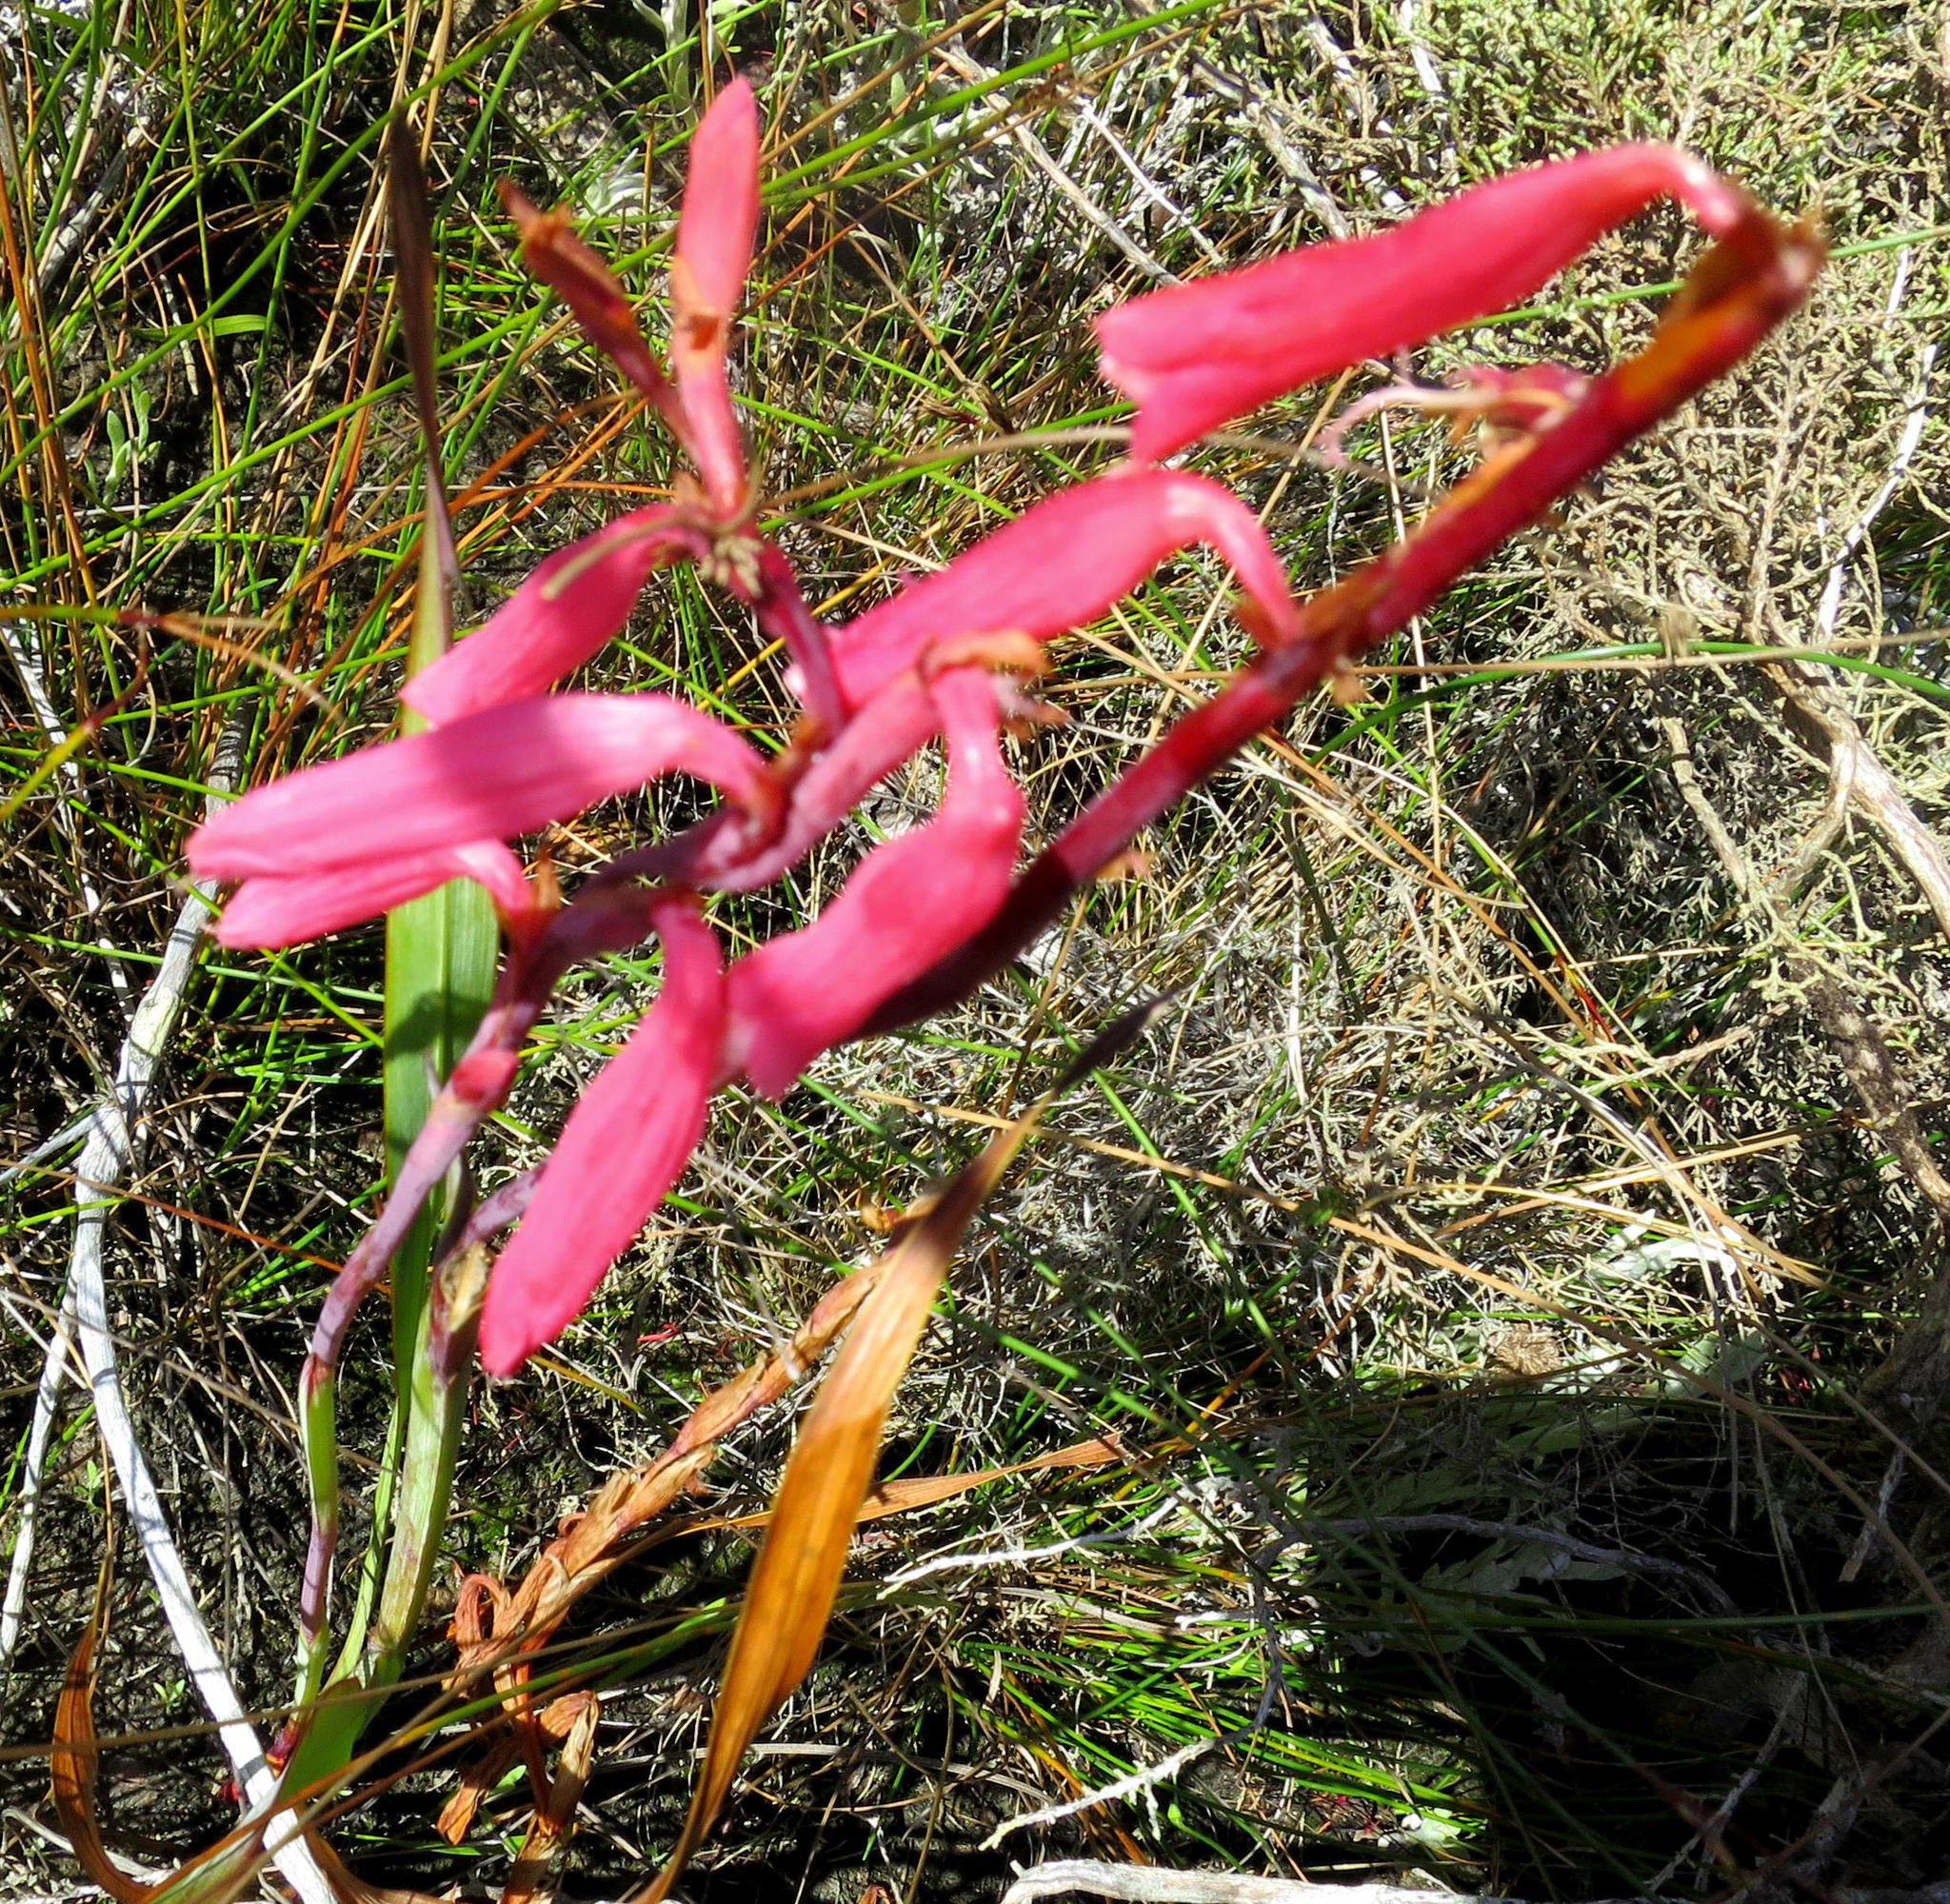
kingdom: Plantae
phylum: Tracheophyta
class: Liliopsida
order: Asparagales
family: Iridaceae
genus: Watsonia
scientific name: Watsonia aletroides
